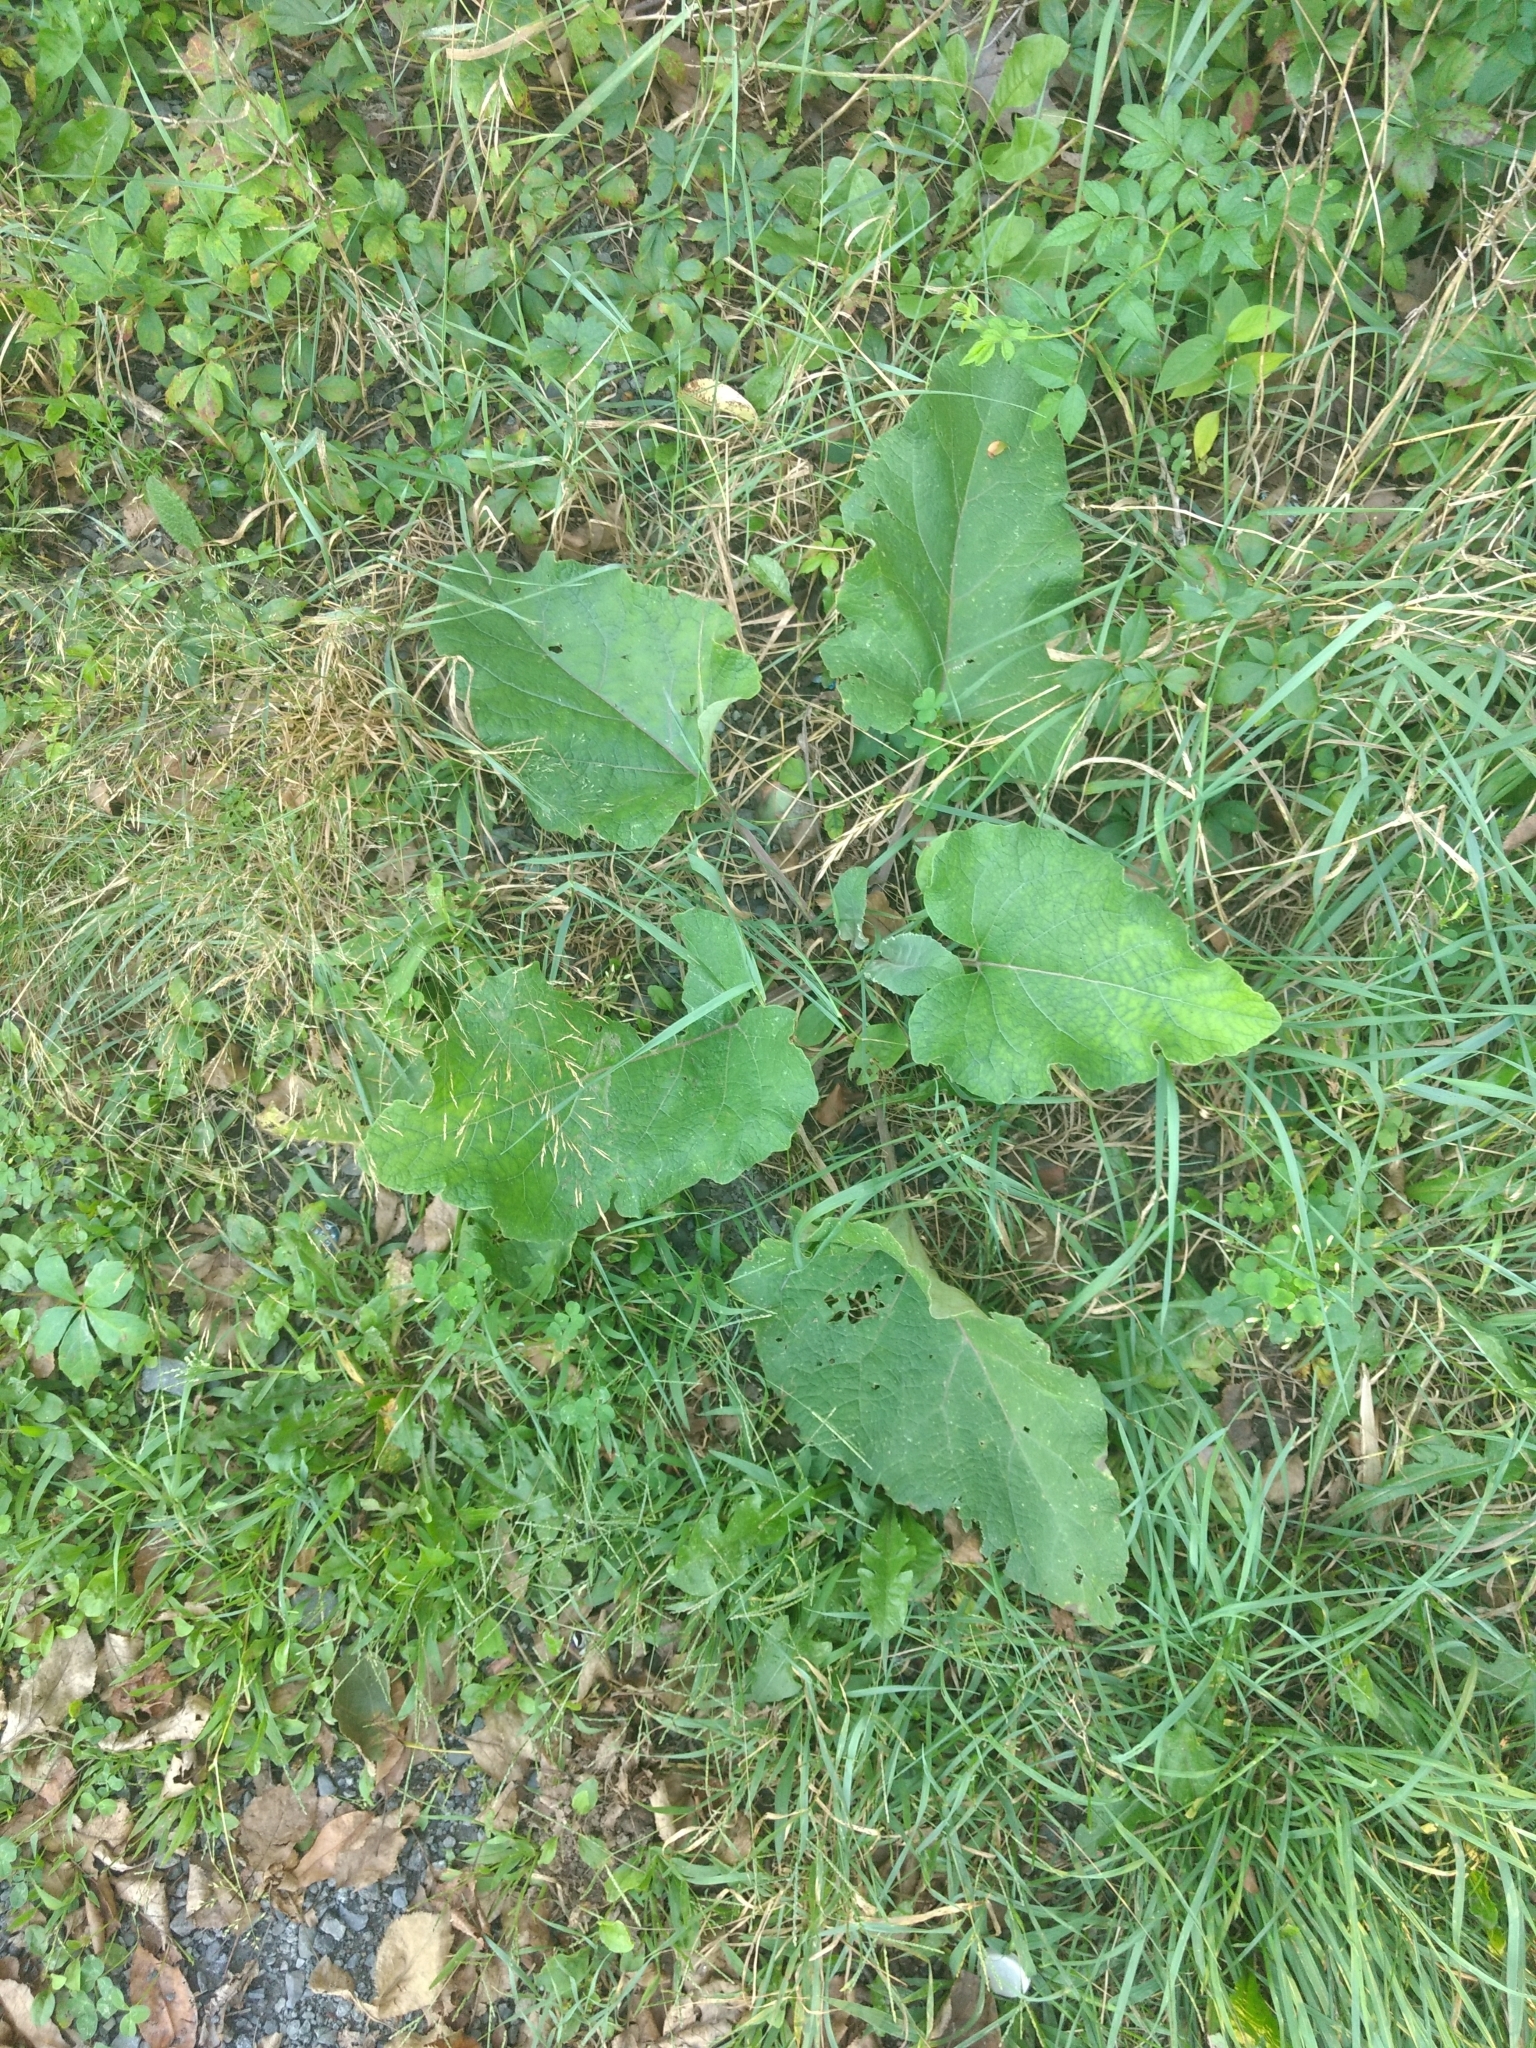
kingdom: Plantae
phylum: Tracheophyta
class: Magnoliopsida
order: Asterales
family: Asteraceae
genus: Arctium
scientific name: Arctium minus
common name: Lesser burdock
